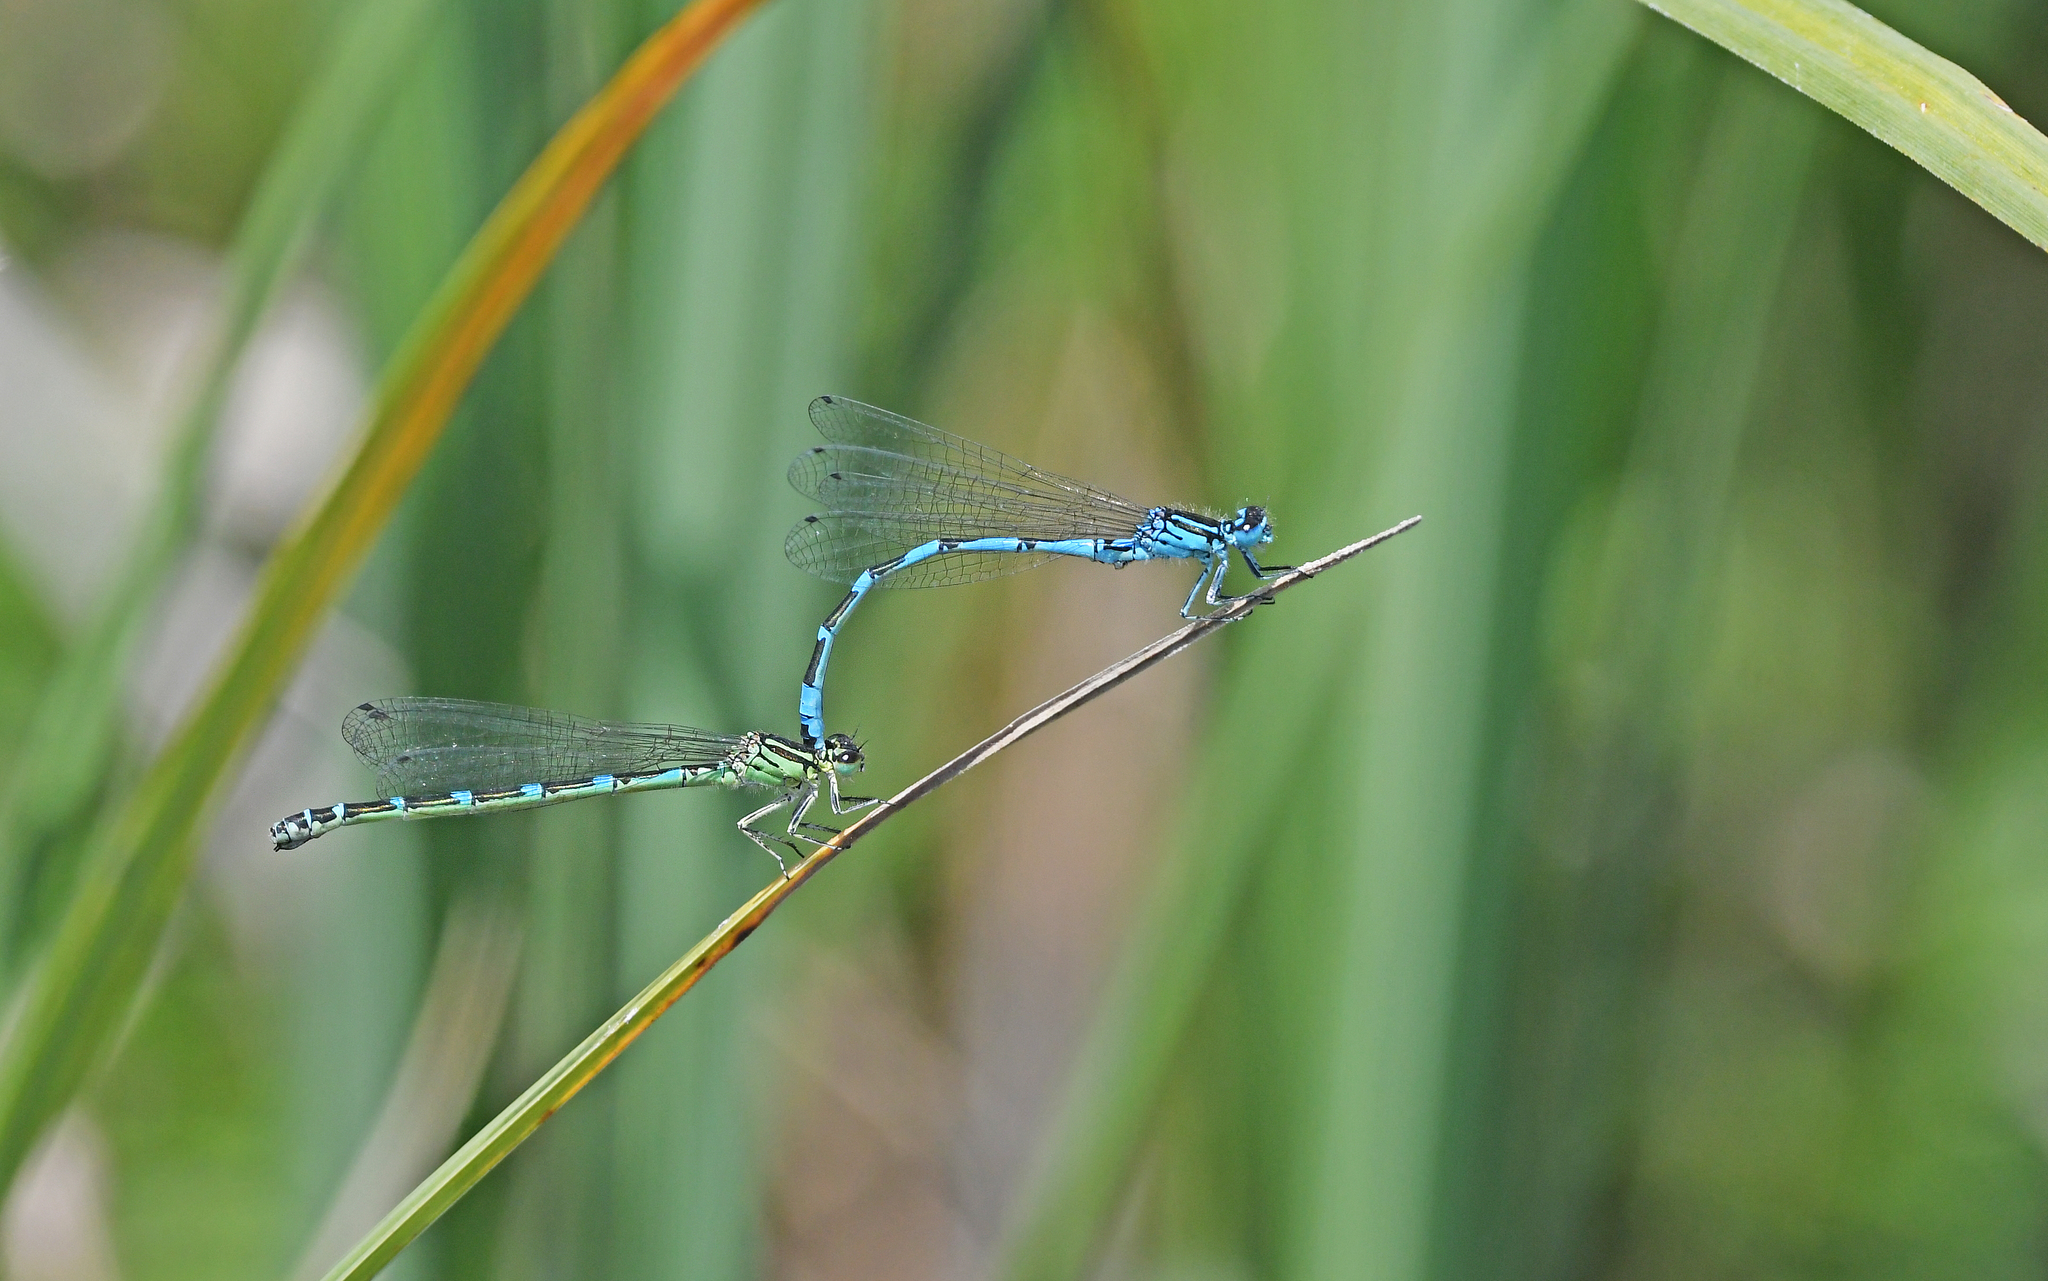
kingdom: Animalia
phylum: Arthropoda
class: Insecta
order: Odonata
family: Coenagrionidae
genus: Coenagrion
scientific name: Coenagrion ornatum
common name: Ornate bluet
